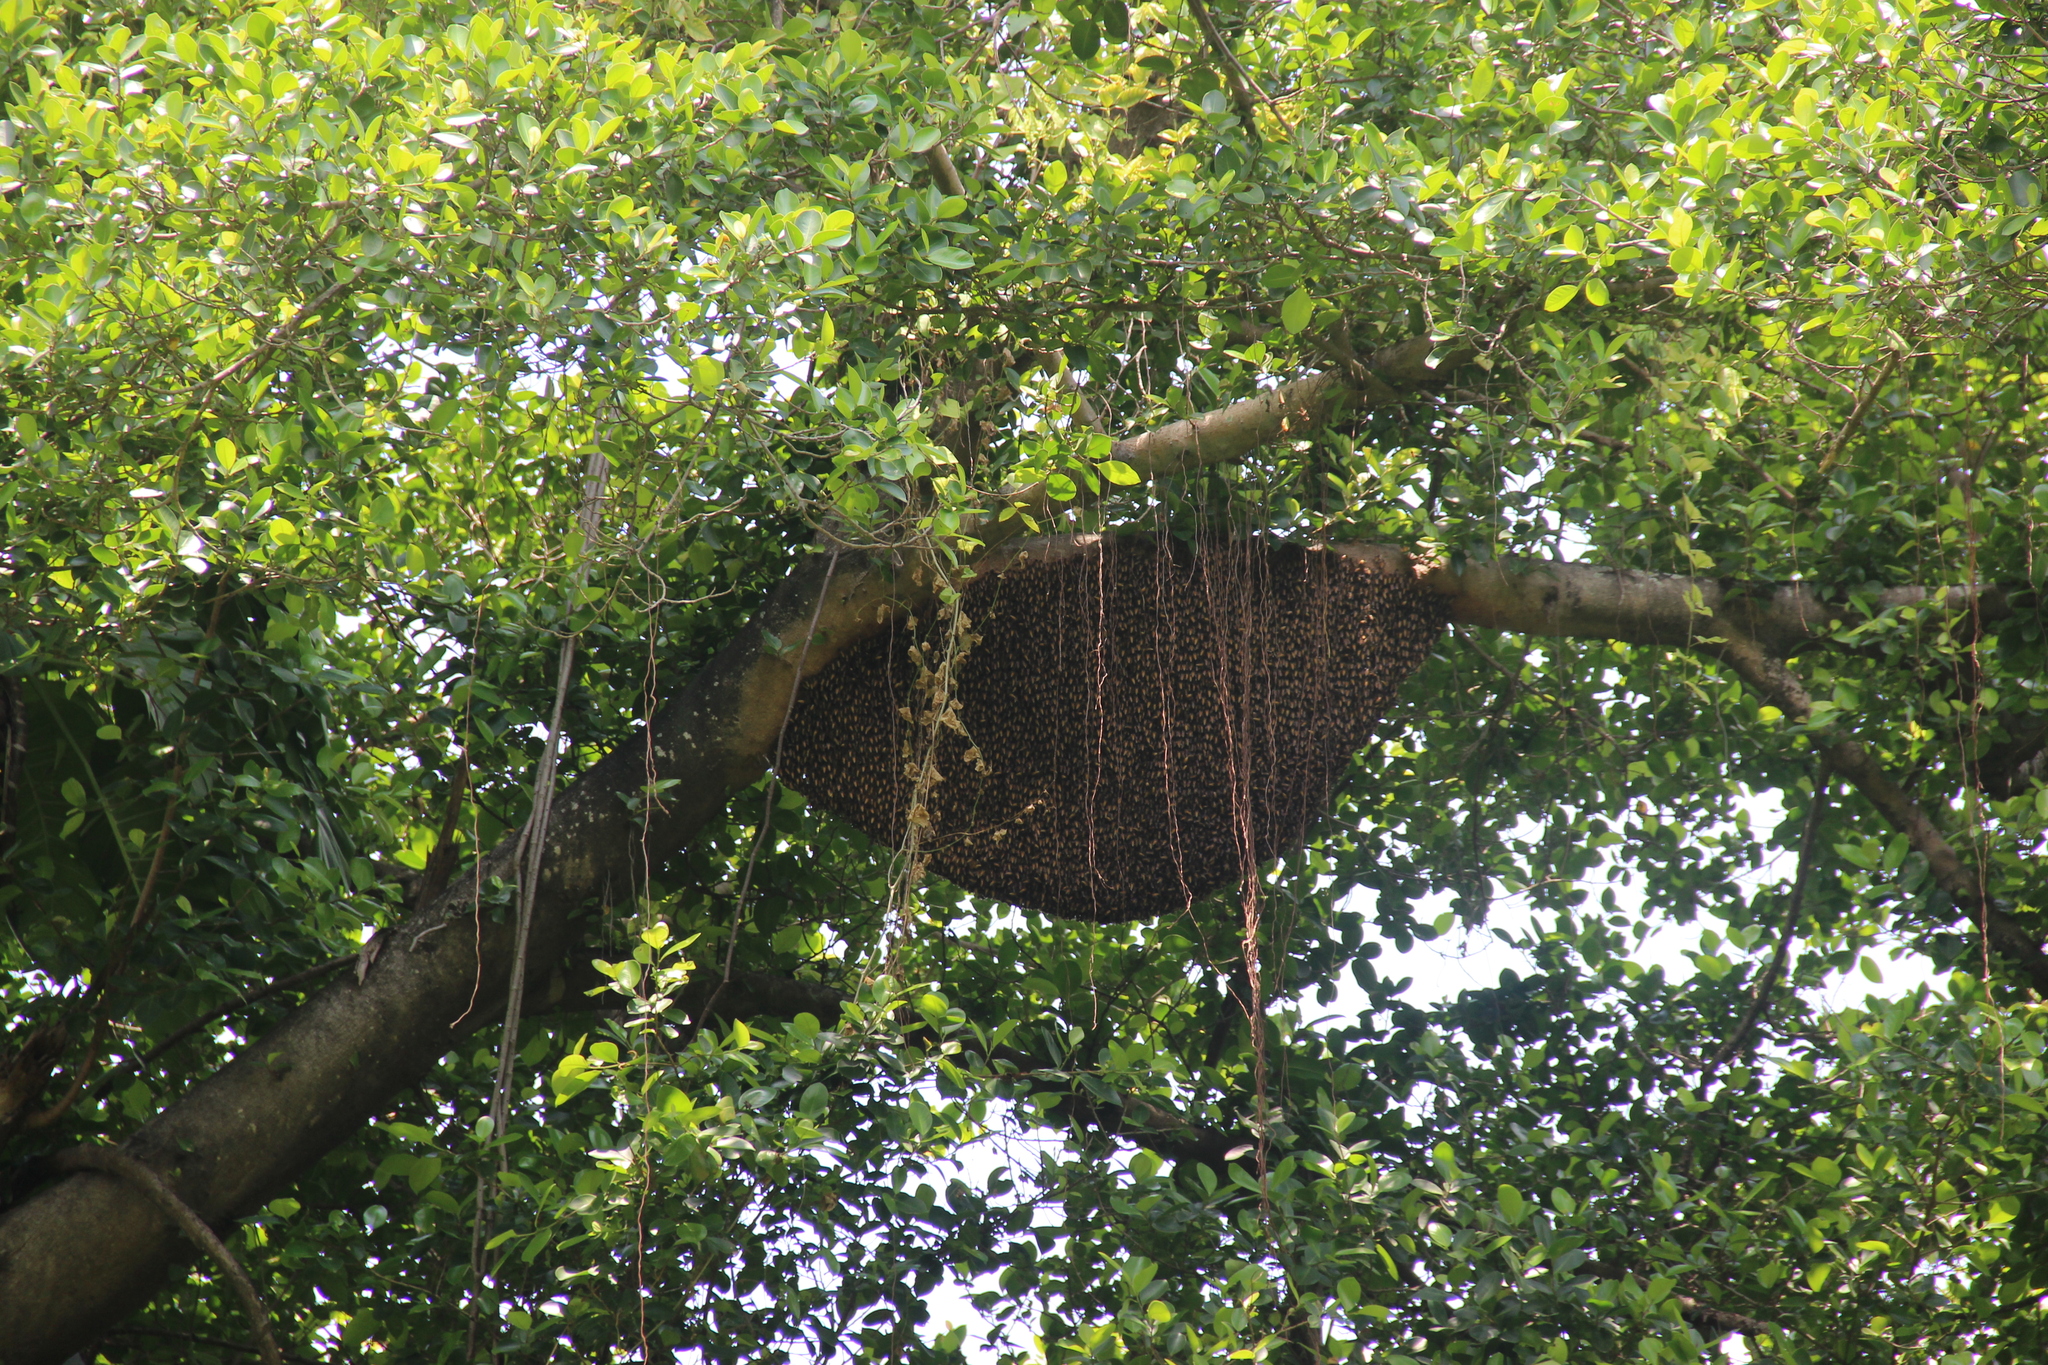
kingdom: Animalia
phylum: Arthropoda
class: Insecta
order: Hymenoptera
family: Apidae
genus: Apis
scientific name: Apis dorsata
